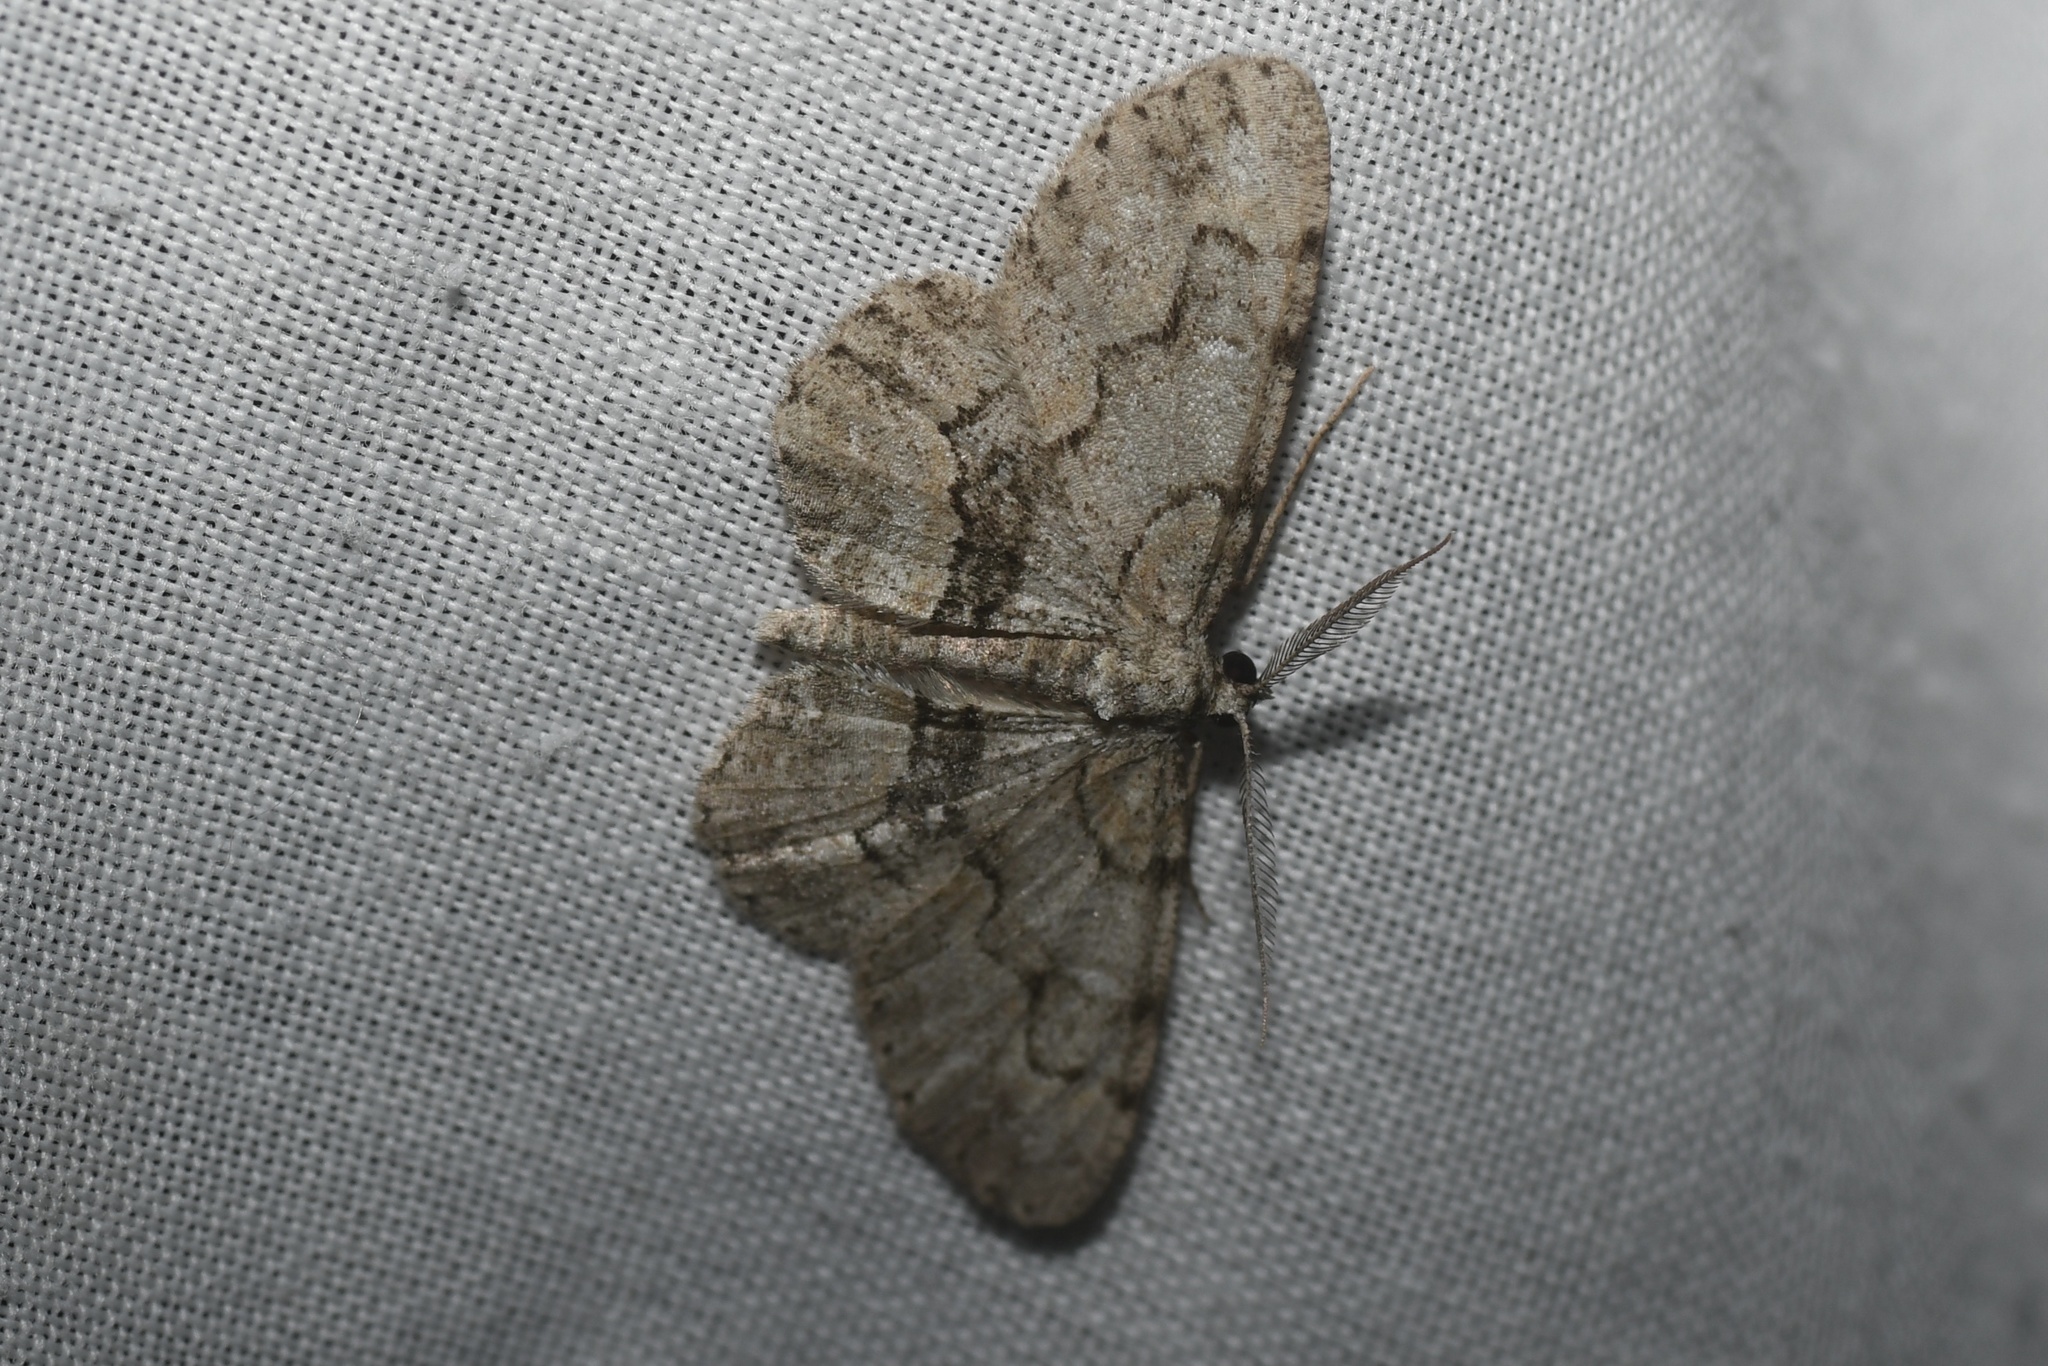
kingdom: Animalia
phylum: Arthropoda
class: Insecta
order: Lepidoptera
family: Geometridae
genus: Iridopsis
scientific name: Iridopsis ephyraria
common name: Pale-winged gray
